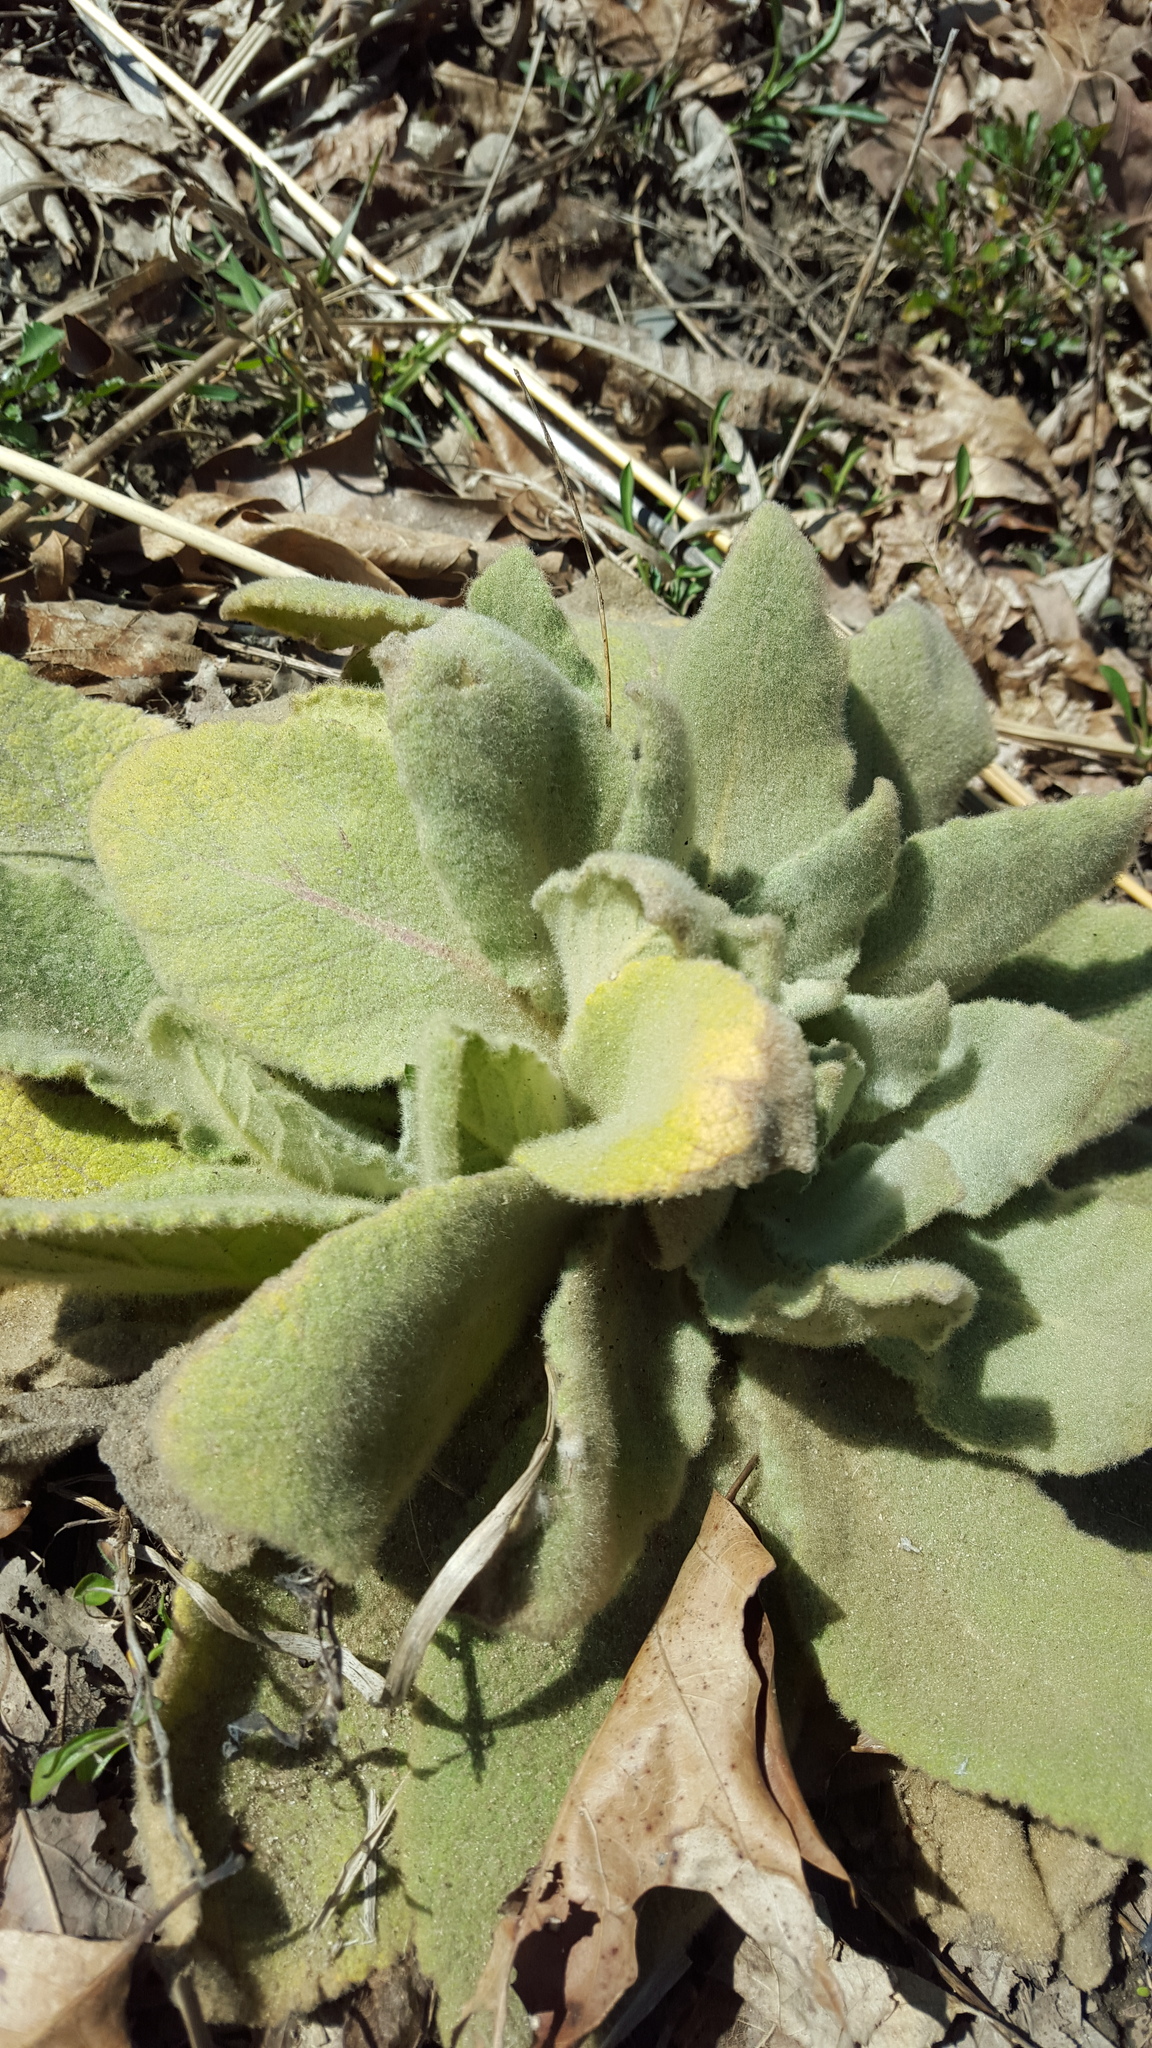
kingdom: Plantae
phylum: Tracheophyta
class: Magnoliopsida
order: Lamiales
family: Scrophulariaceae
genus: Verbascum
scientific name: Verbascum thapsus
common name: Common mullein
